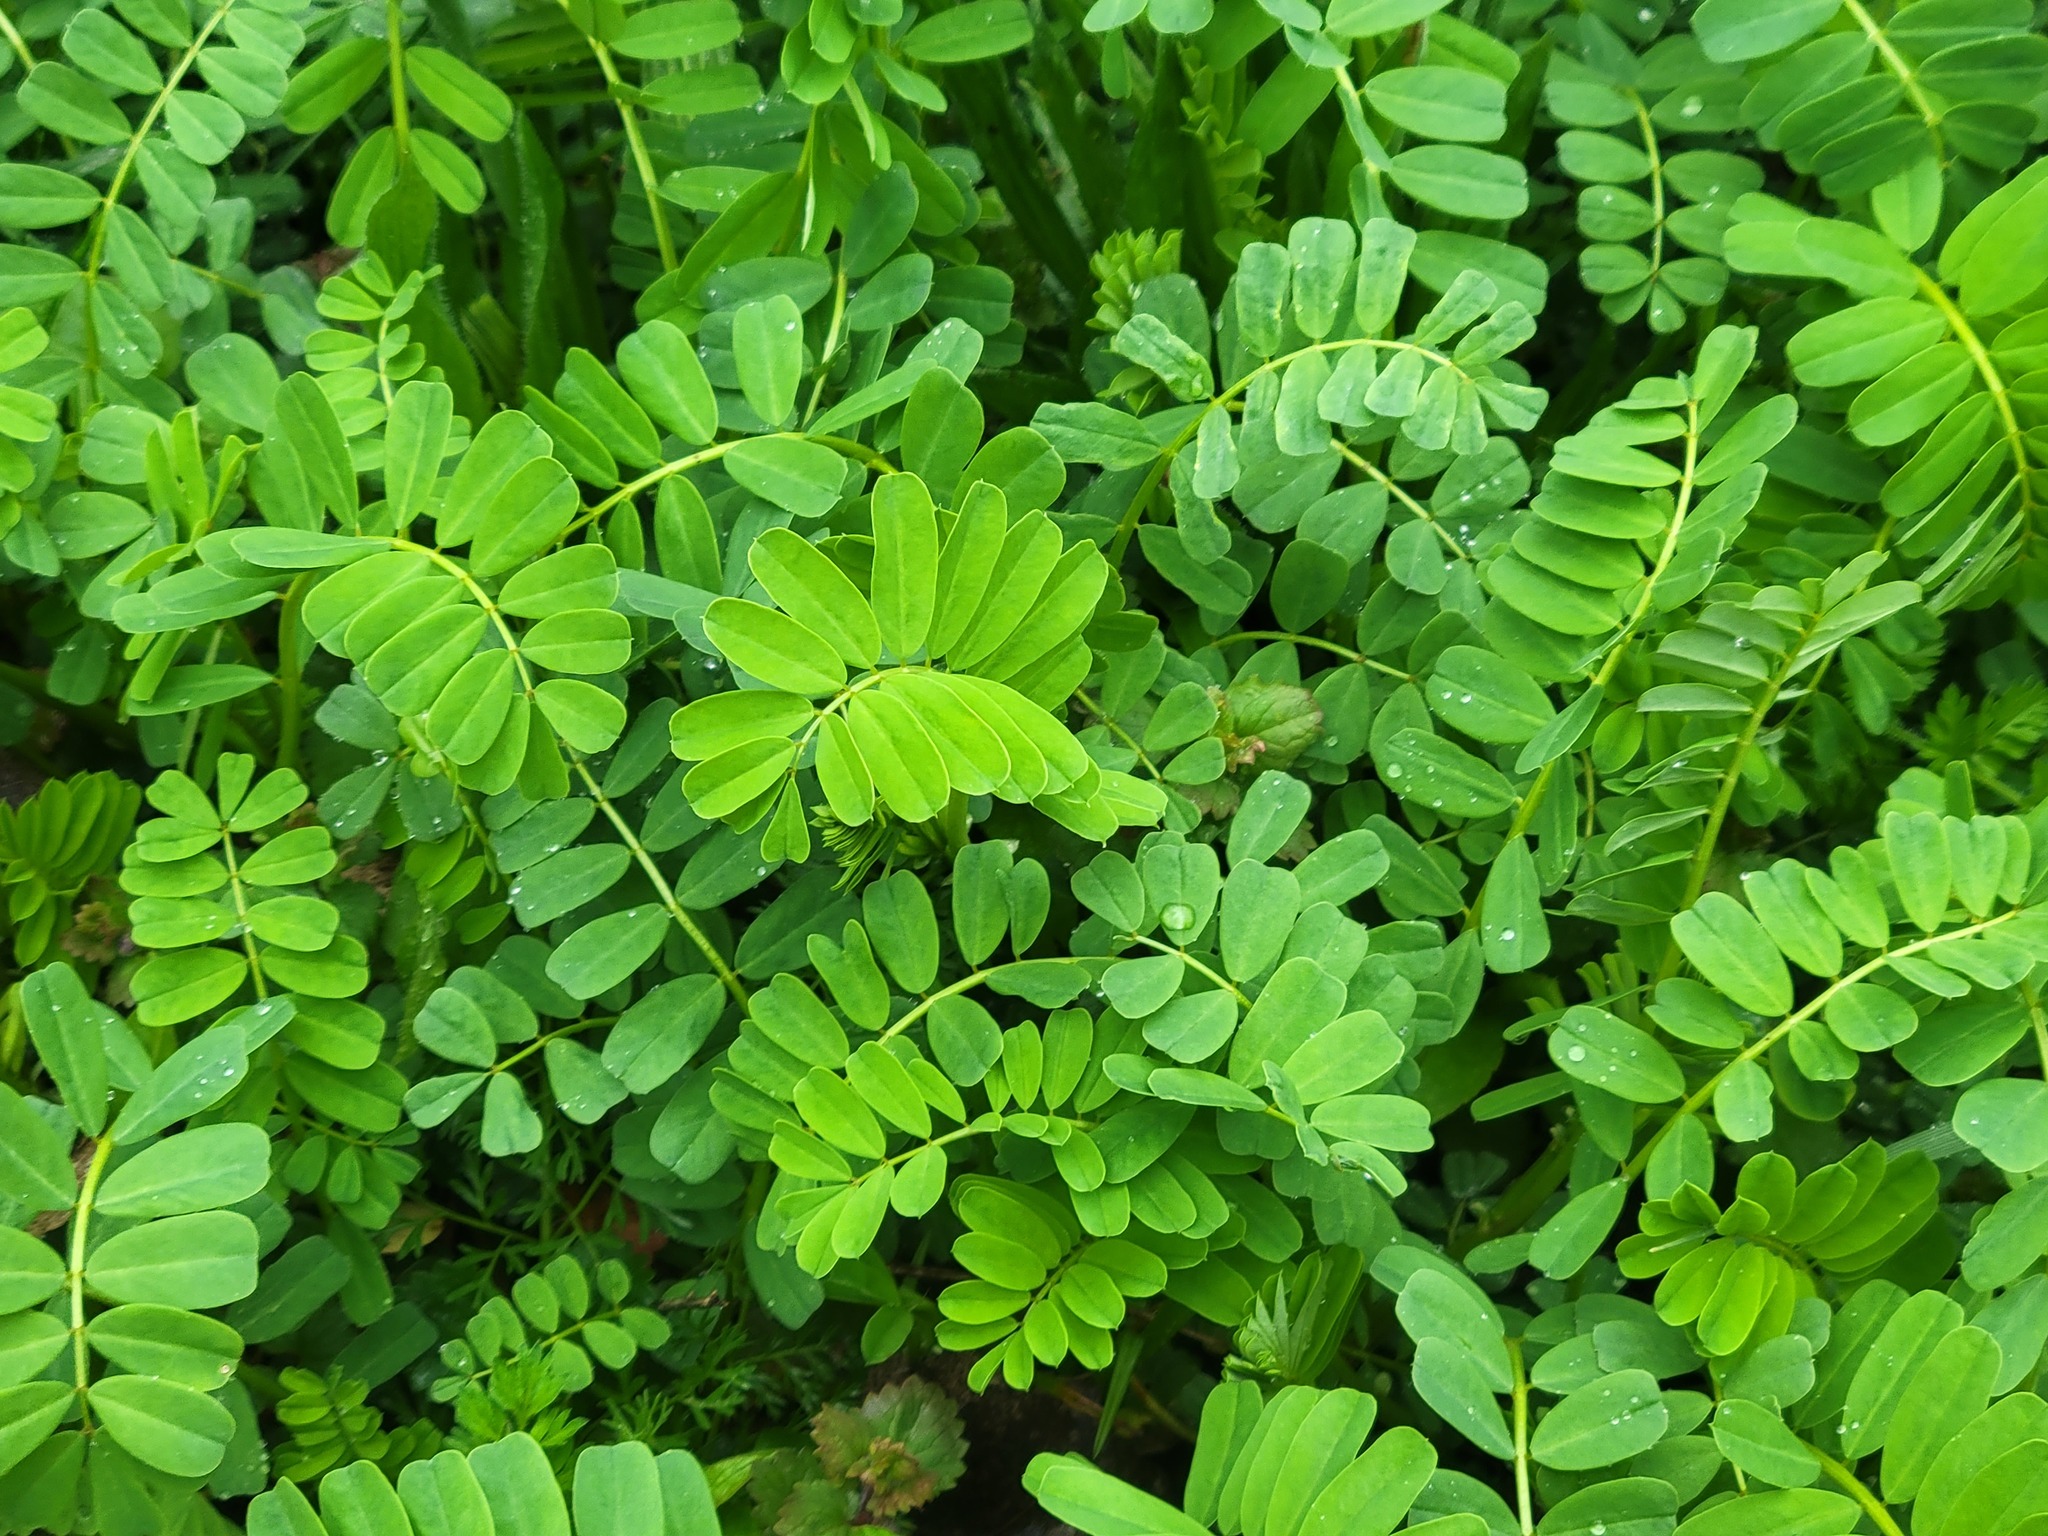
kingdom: Plantae
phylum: Tracheophyta
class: Magnoliopsida
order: Fabales
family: Fabaceae
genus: Coronilla
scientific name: Coronilla varia
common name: Crownvetch
